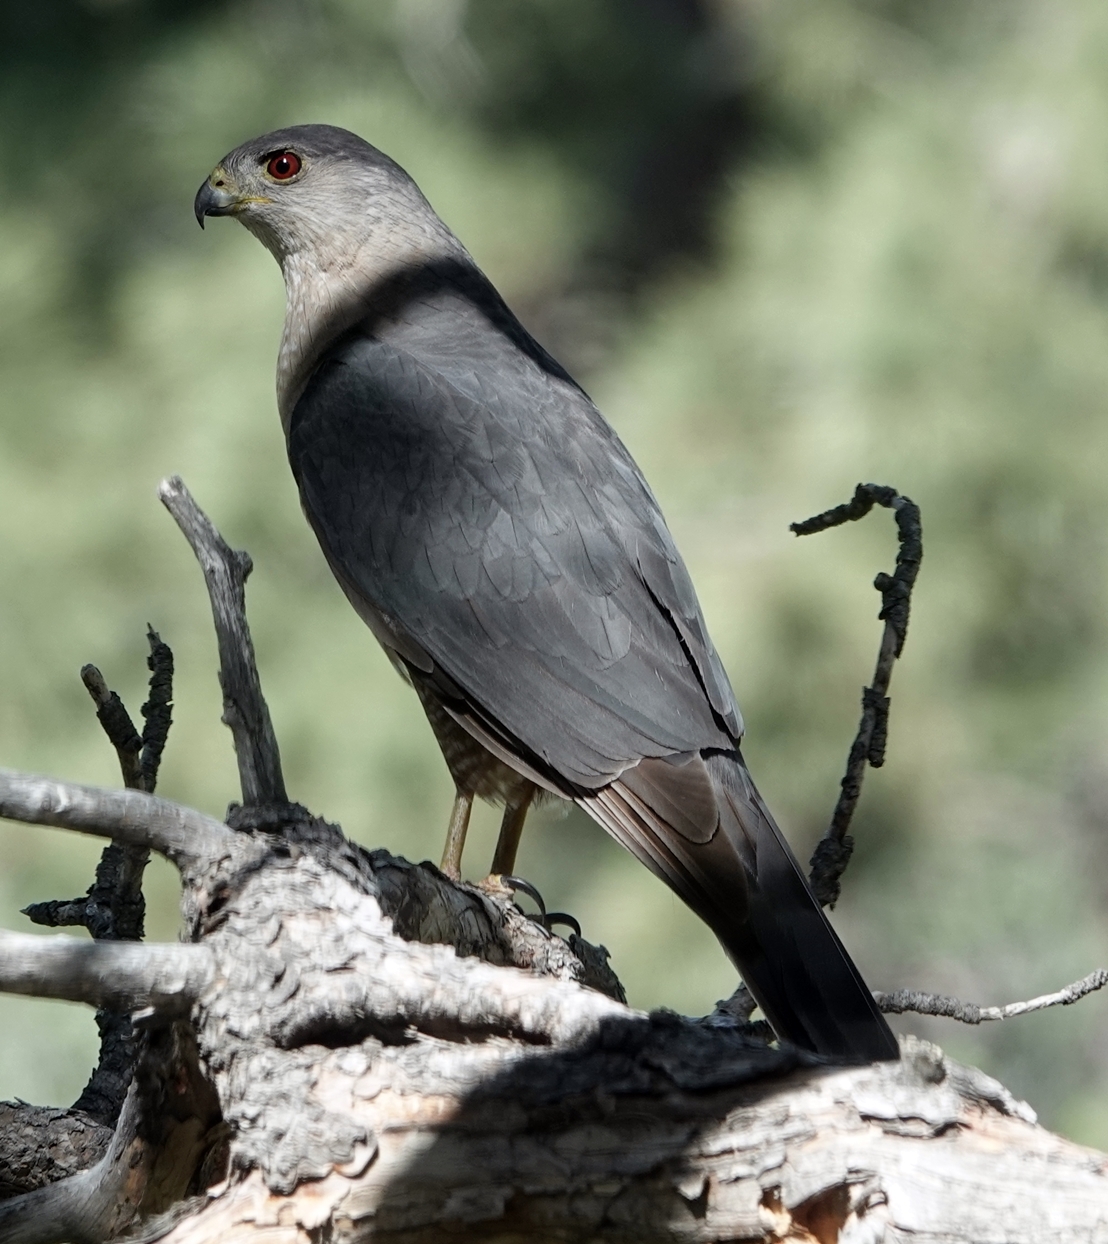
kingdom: Animalia
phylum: Chordata
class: Aves
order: Accipitriformes
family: Accipitridae
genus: Accipiter
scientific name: Accipiter cooperii
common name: Cooper's hawk
